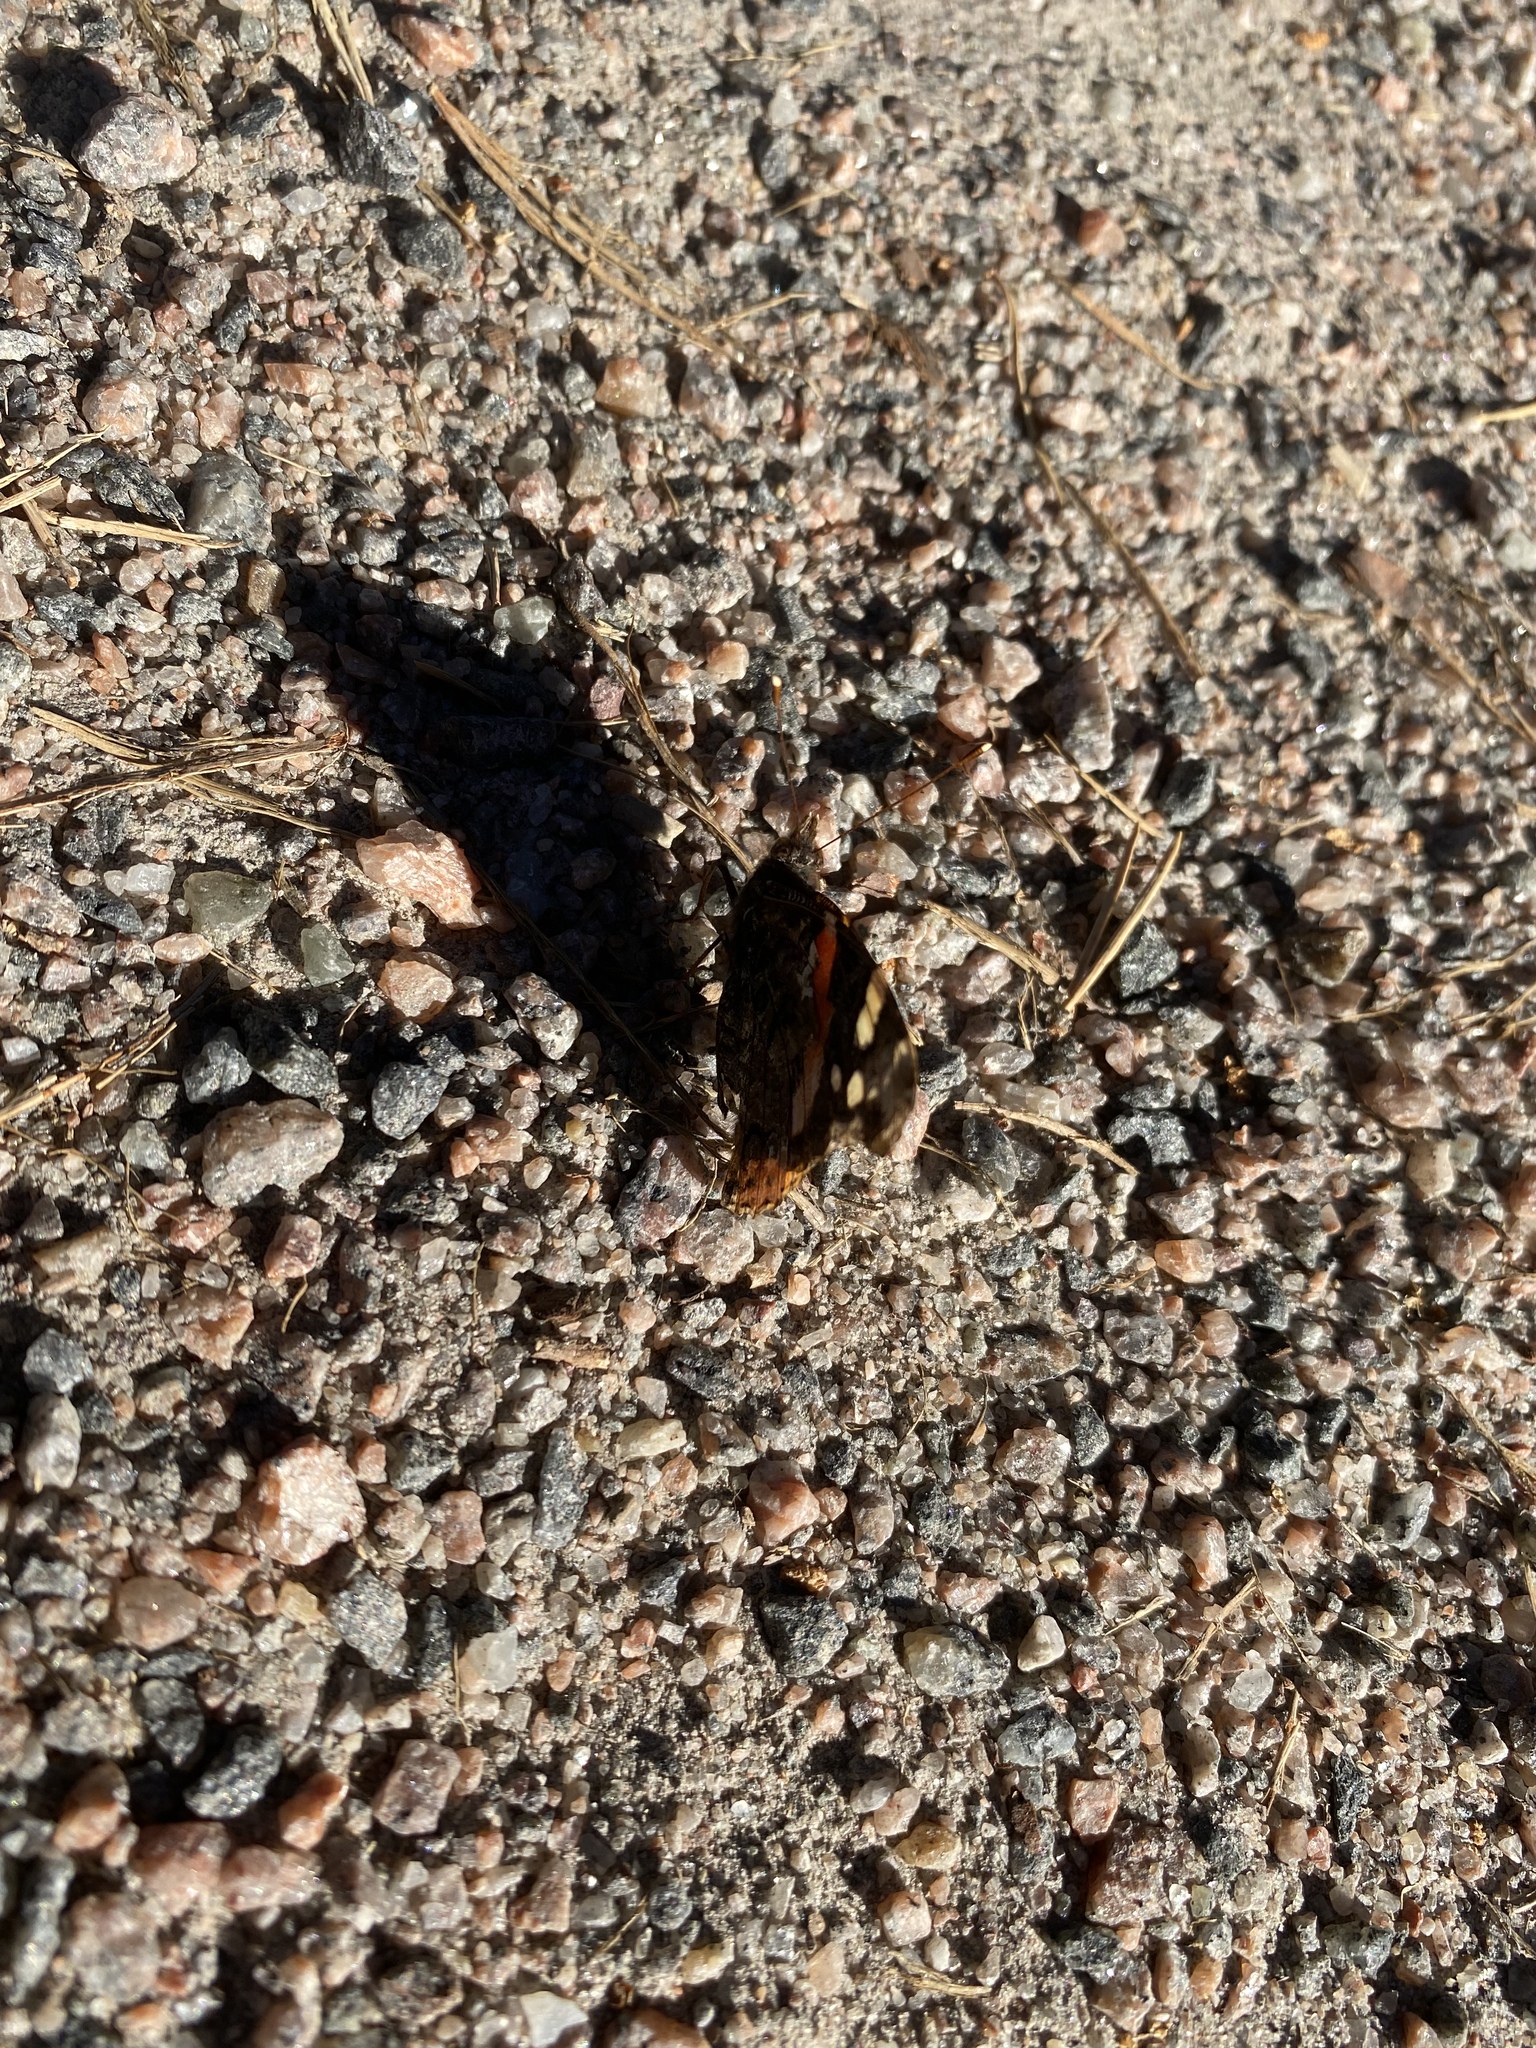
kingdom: Animalia
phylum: Arthropoda
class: Insecta
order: Lepidoptera
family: Nymphalidae
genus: Vanessa
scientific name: Vanessa atalanta
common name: Red admiral
